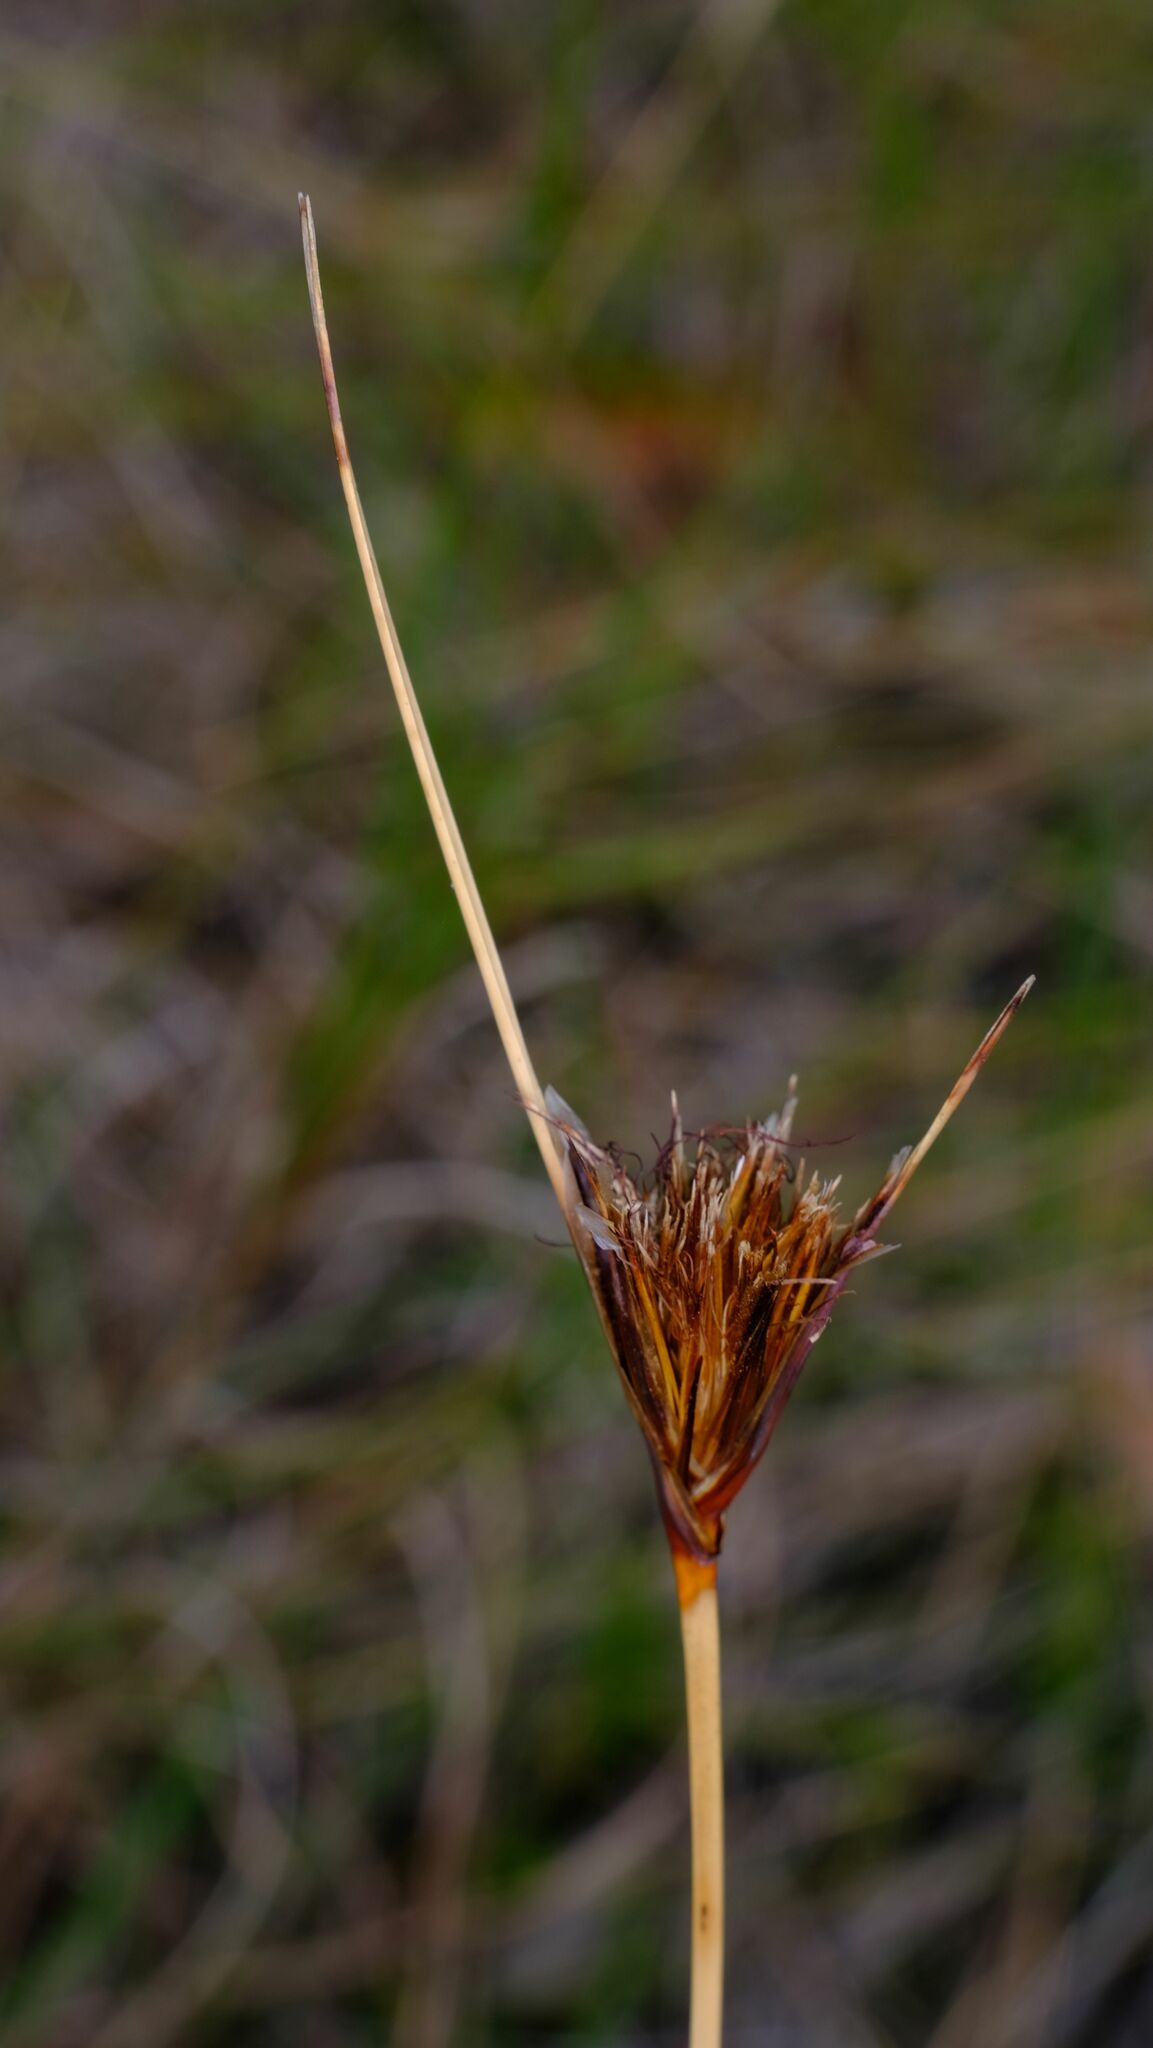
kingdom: Plantae
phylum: Tracheophyta
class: Liliopsida
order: Poales
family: Cyperaceae
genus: Ptilothrix
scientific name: Ptilothrix deusta
